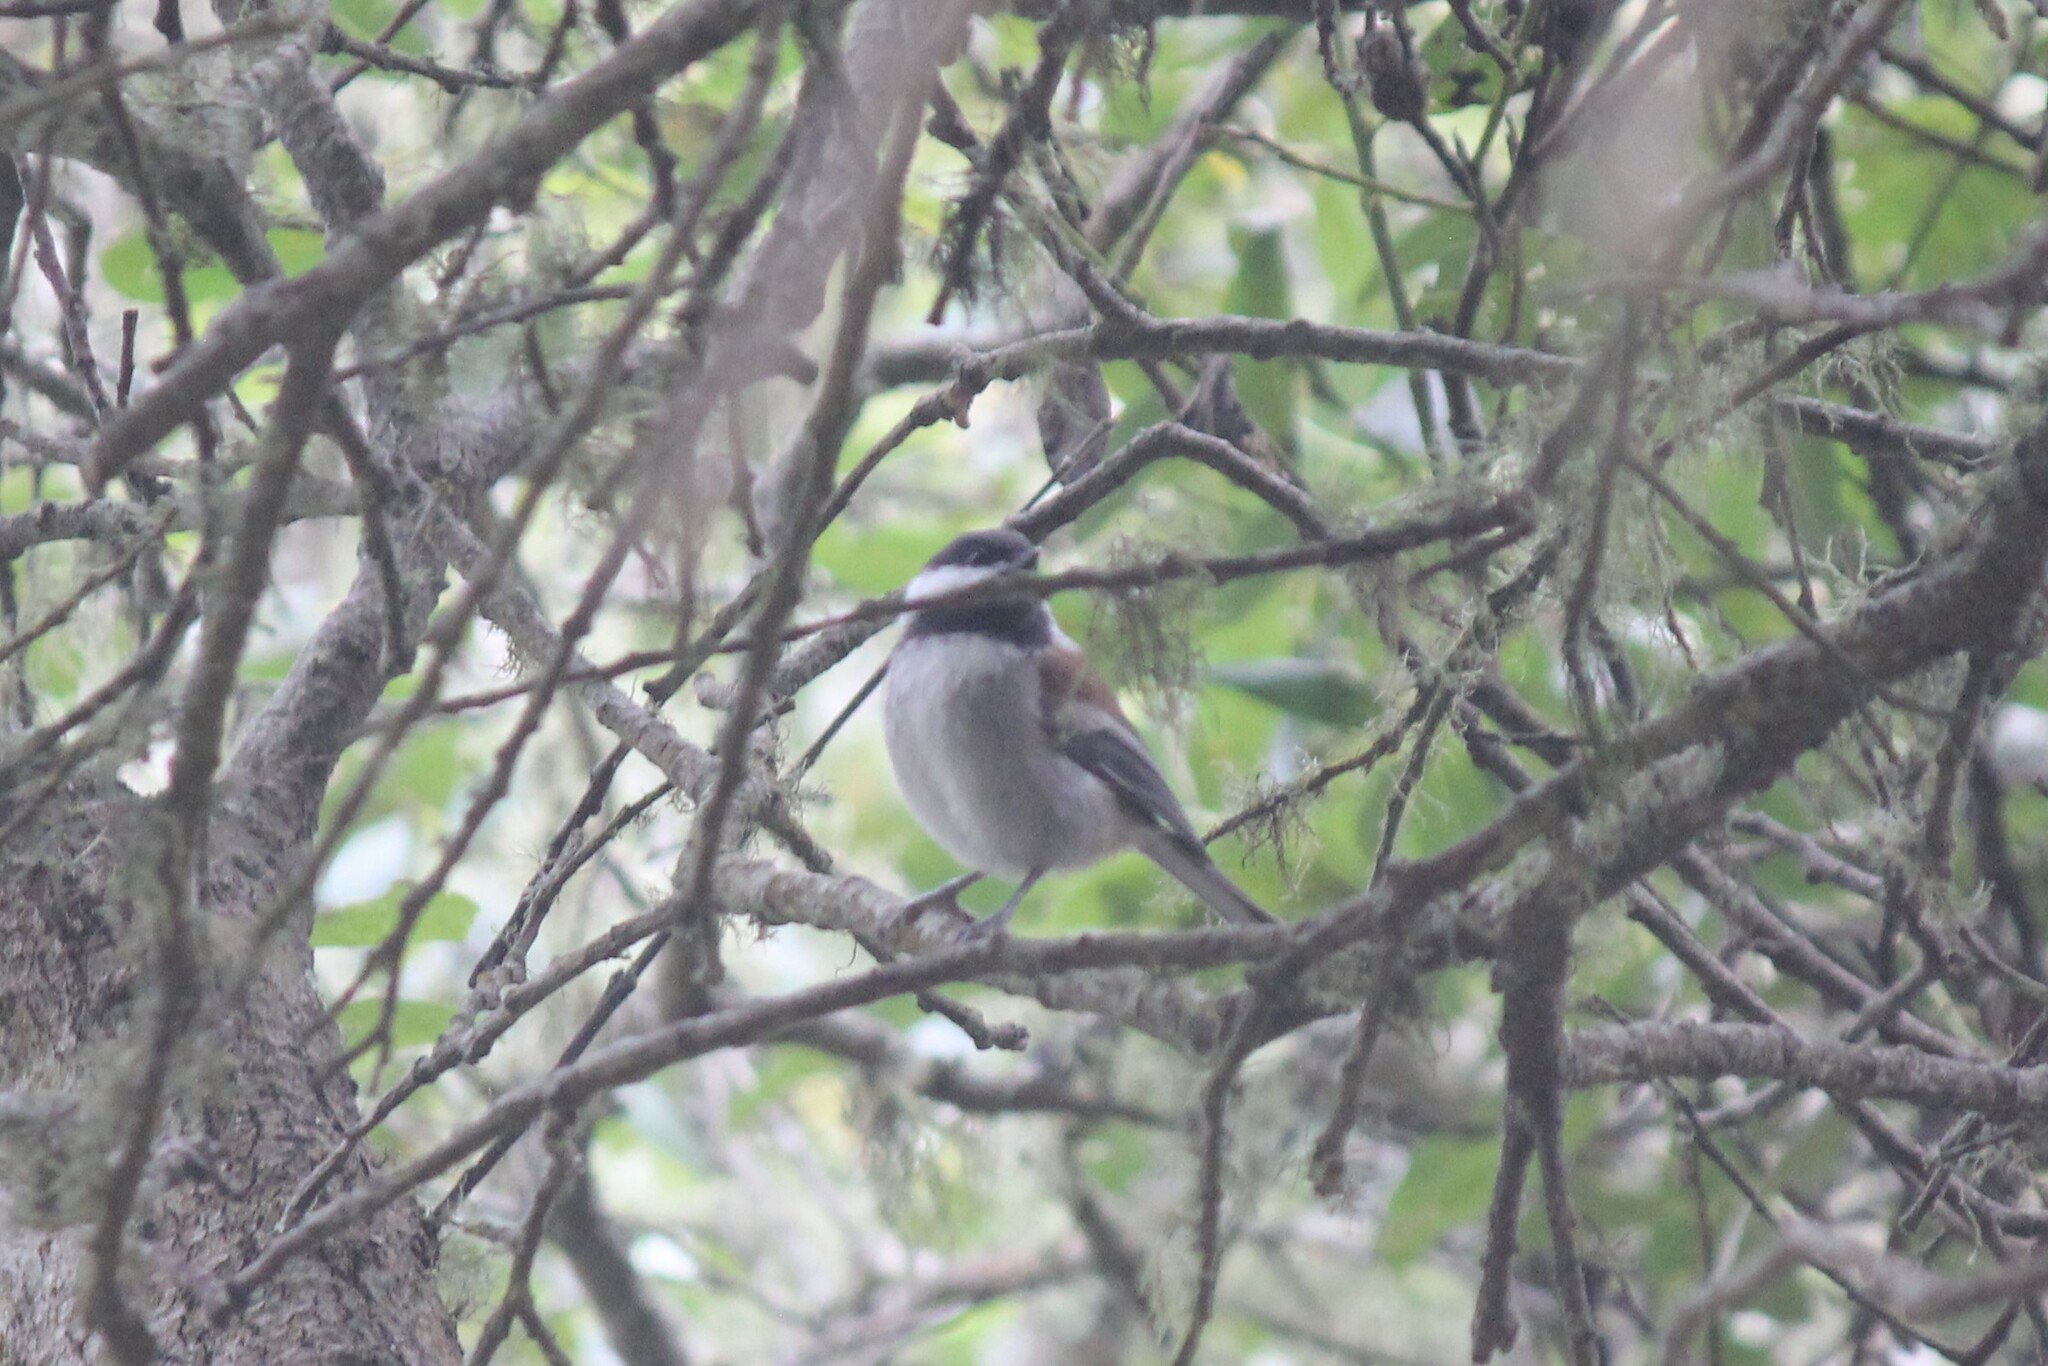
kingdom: Animalia
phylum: Chordata
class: Aves
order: Passeriformes
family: Paridae
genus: Poecile
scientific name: Poecile rufescens
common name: Chestnut-backed chickadee
